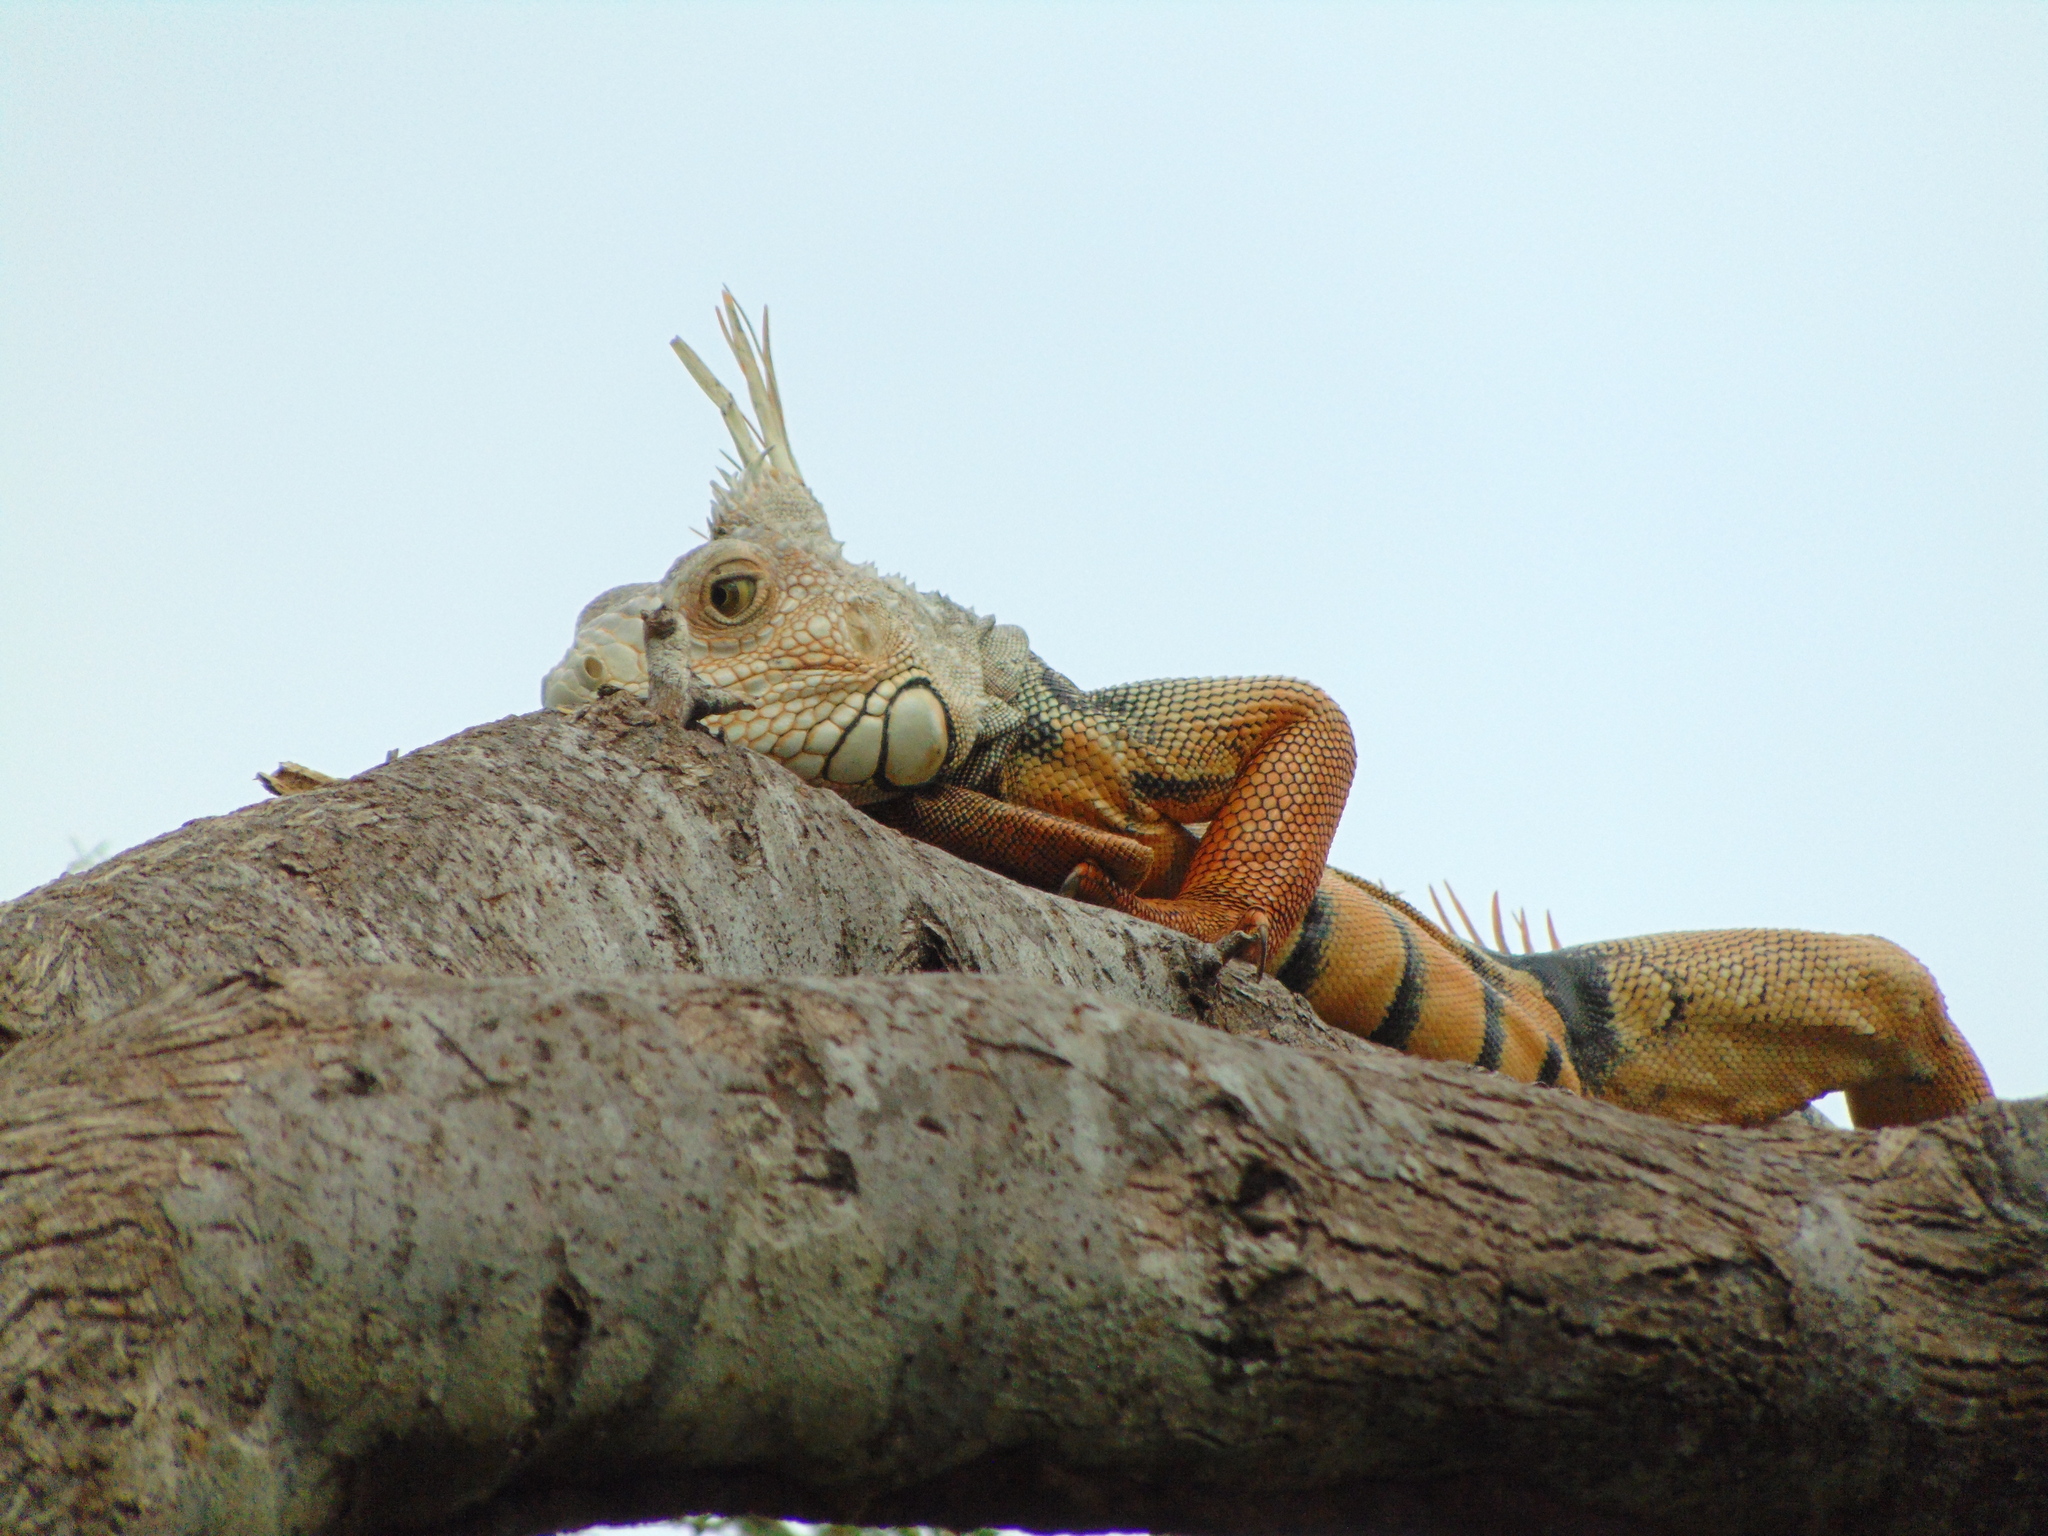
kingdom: Animalia
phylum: Chordata
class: Squamata
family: Iguanidae
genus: Iguana
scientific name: Iguana iguana
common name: Green iguana
